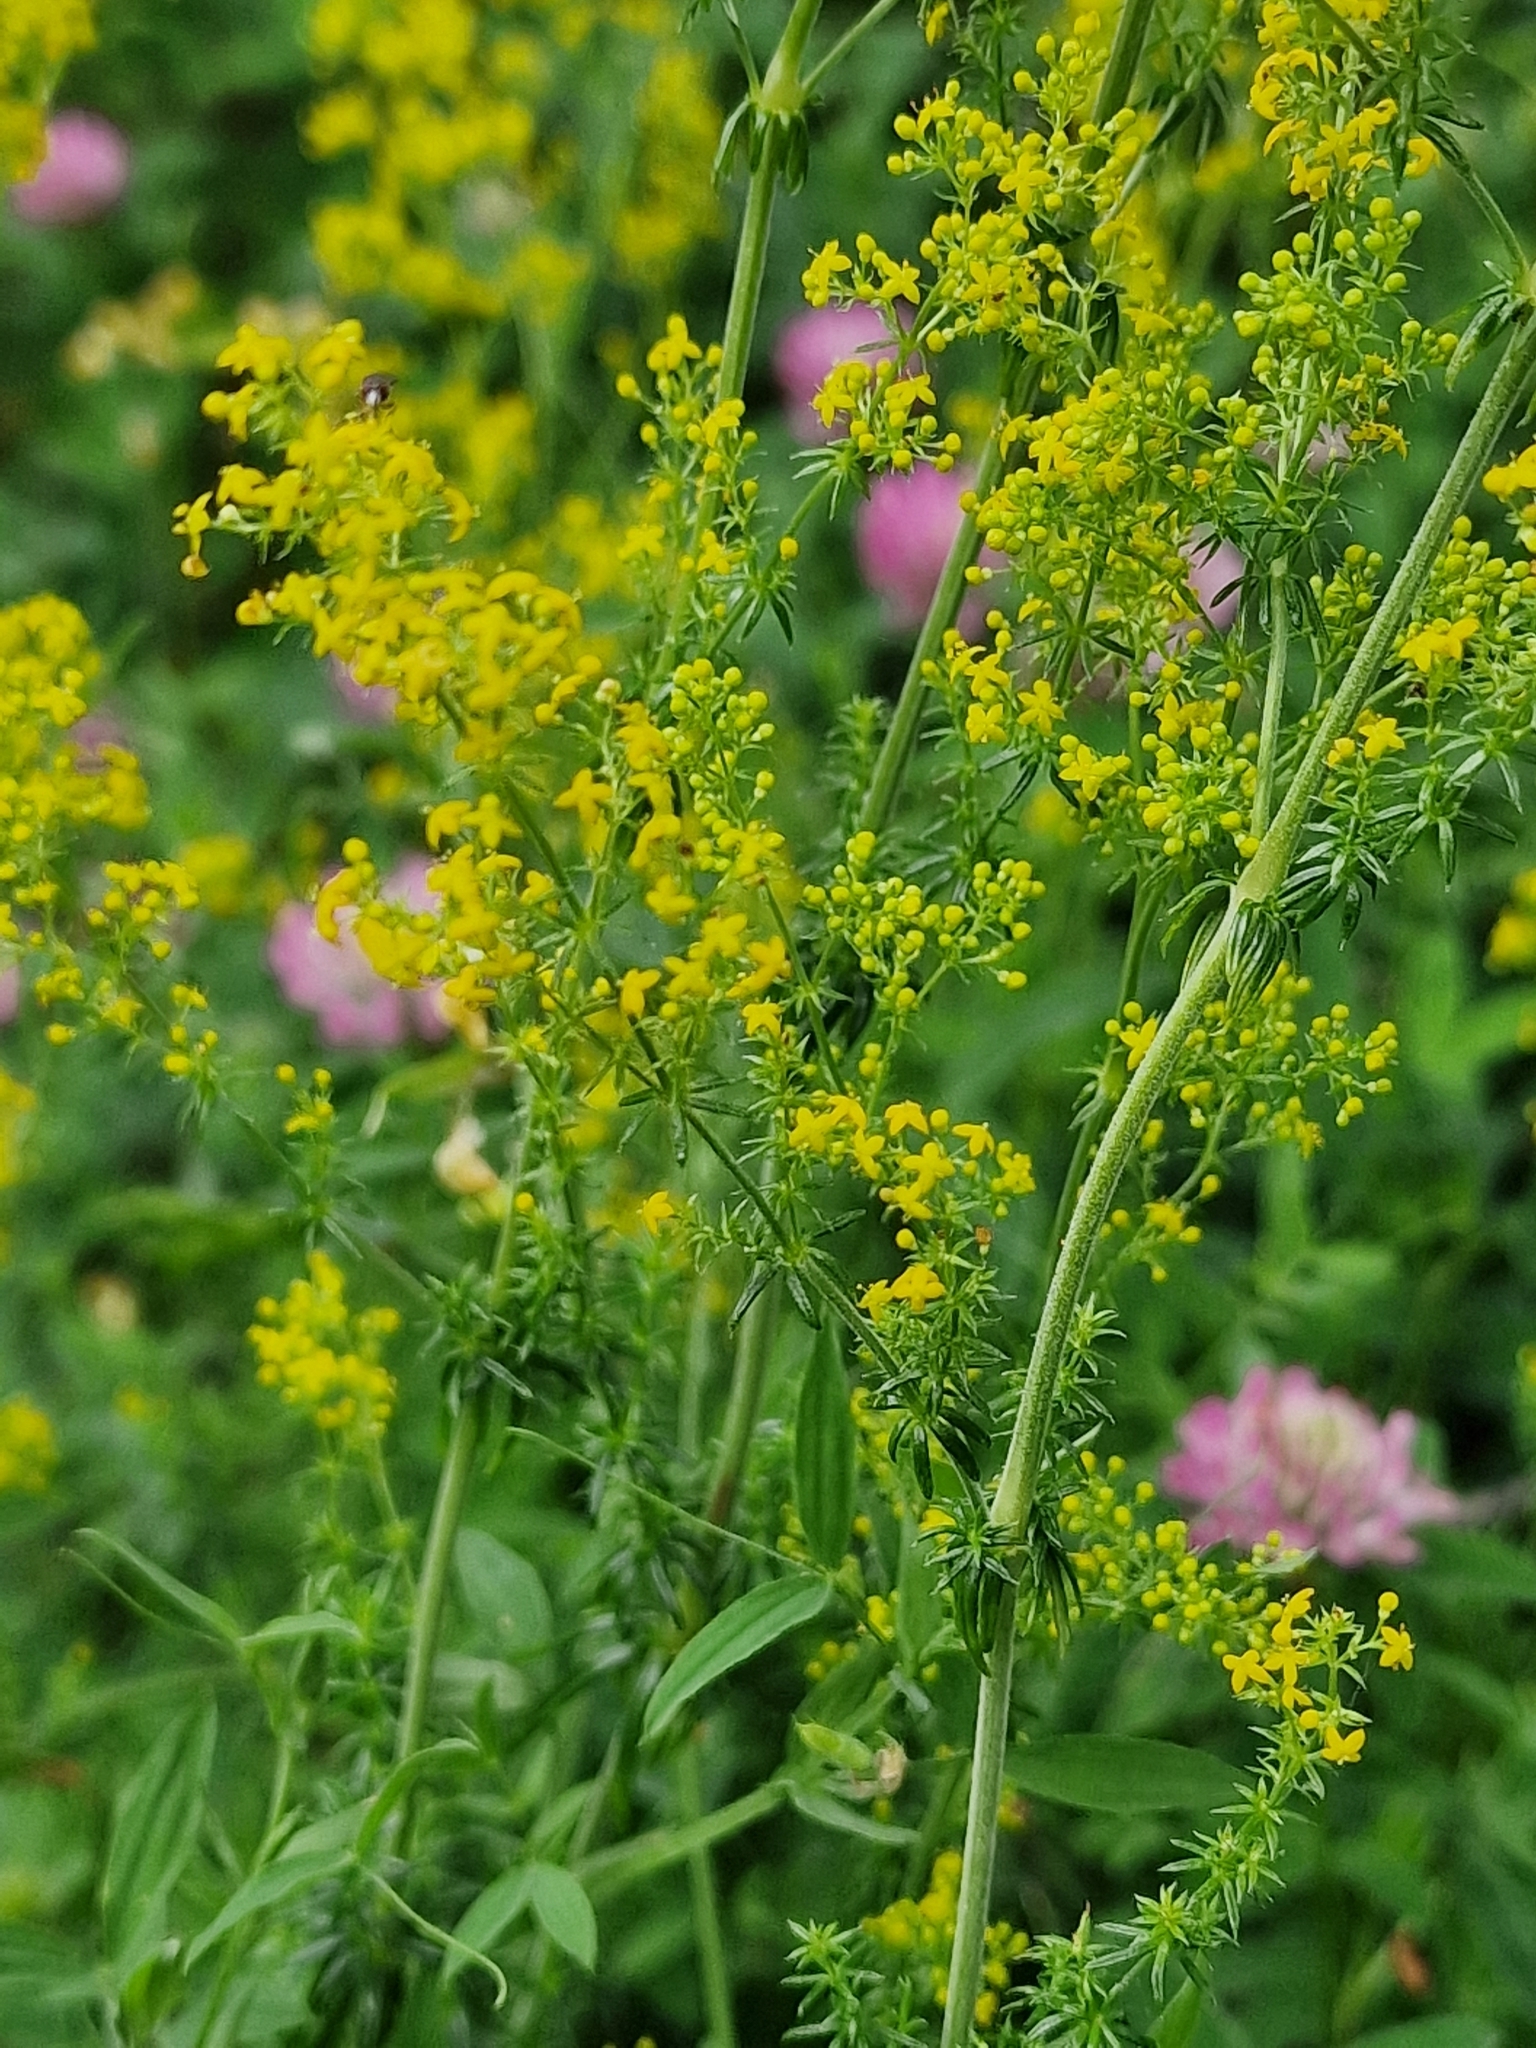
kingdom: Plantae
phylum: Tracheophyta
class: Magnoliopsida
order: Gentianales
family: Rubiaceae
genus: Galium
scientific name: Galium verum
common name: Lady's bedstraw
